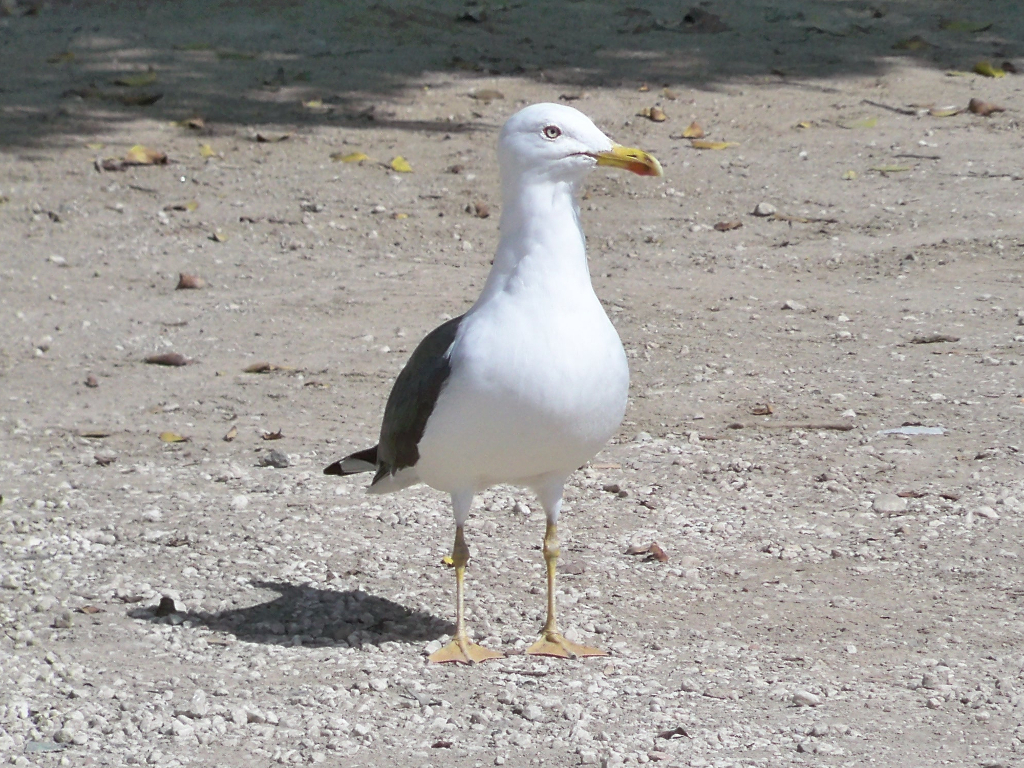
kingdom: Animalia
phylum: Chordata
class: Aves
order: Charadriiformes
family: Laridae
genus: Larus
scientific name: Larus fuscus
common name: Lesser black-backed gull
